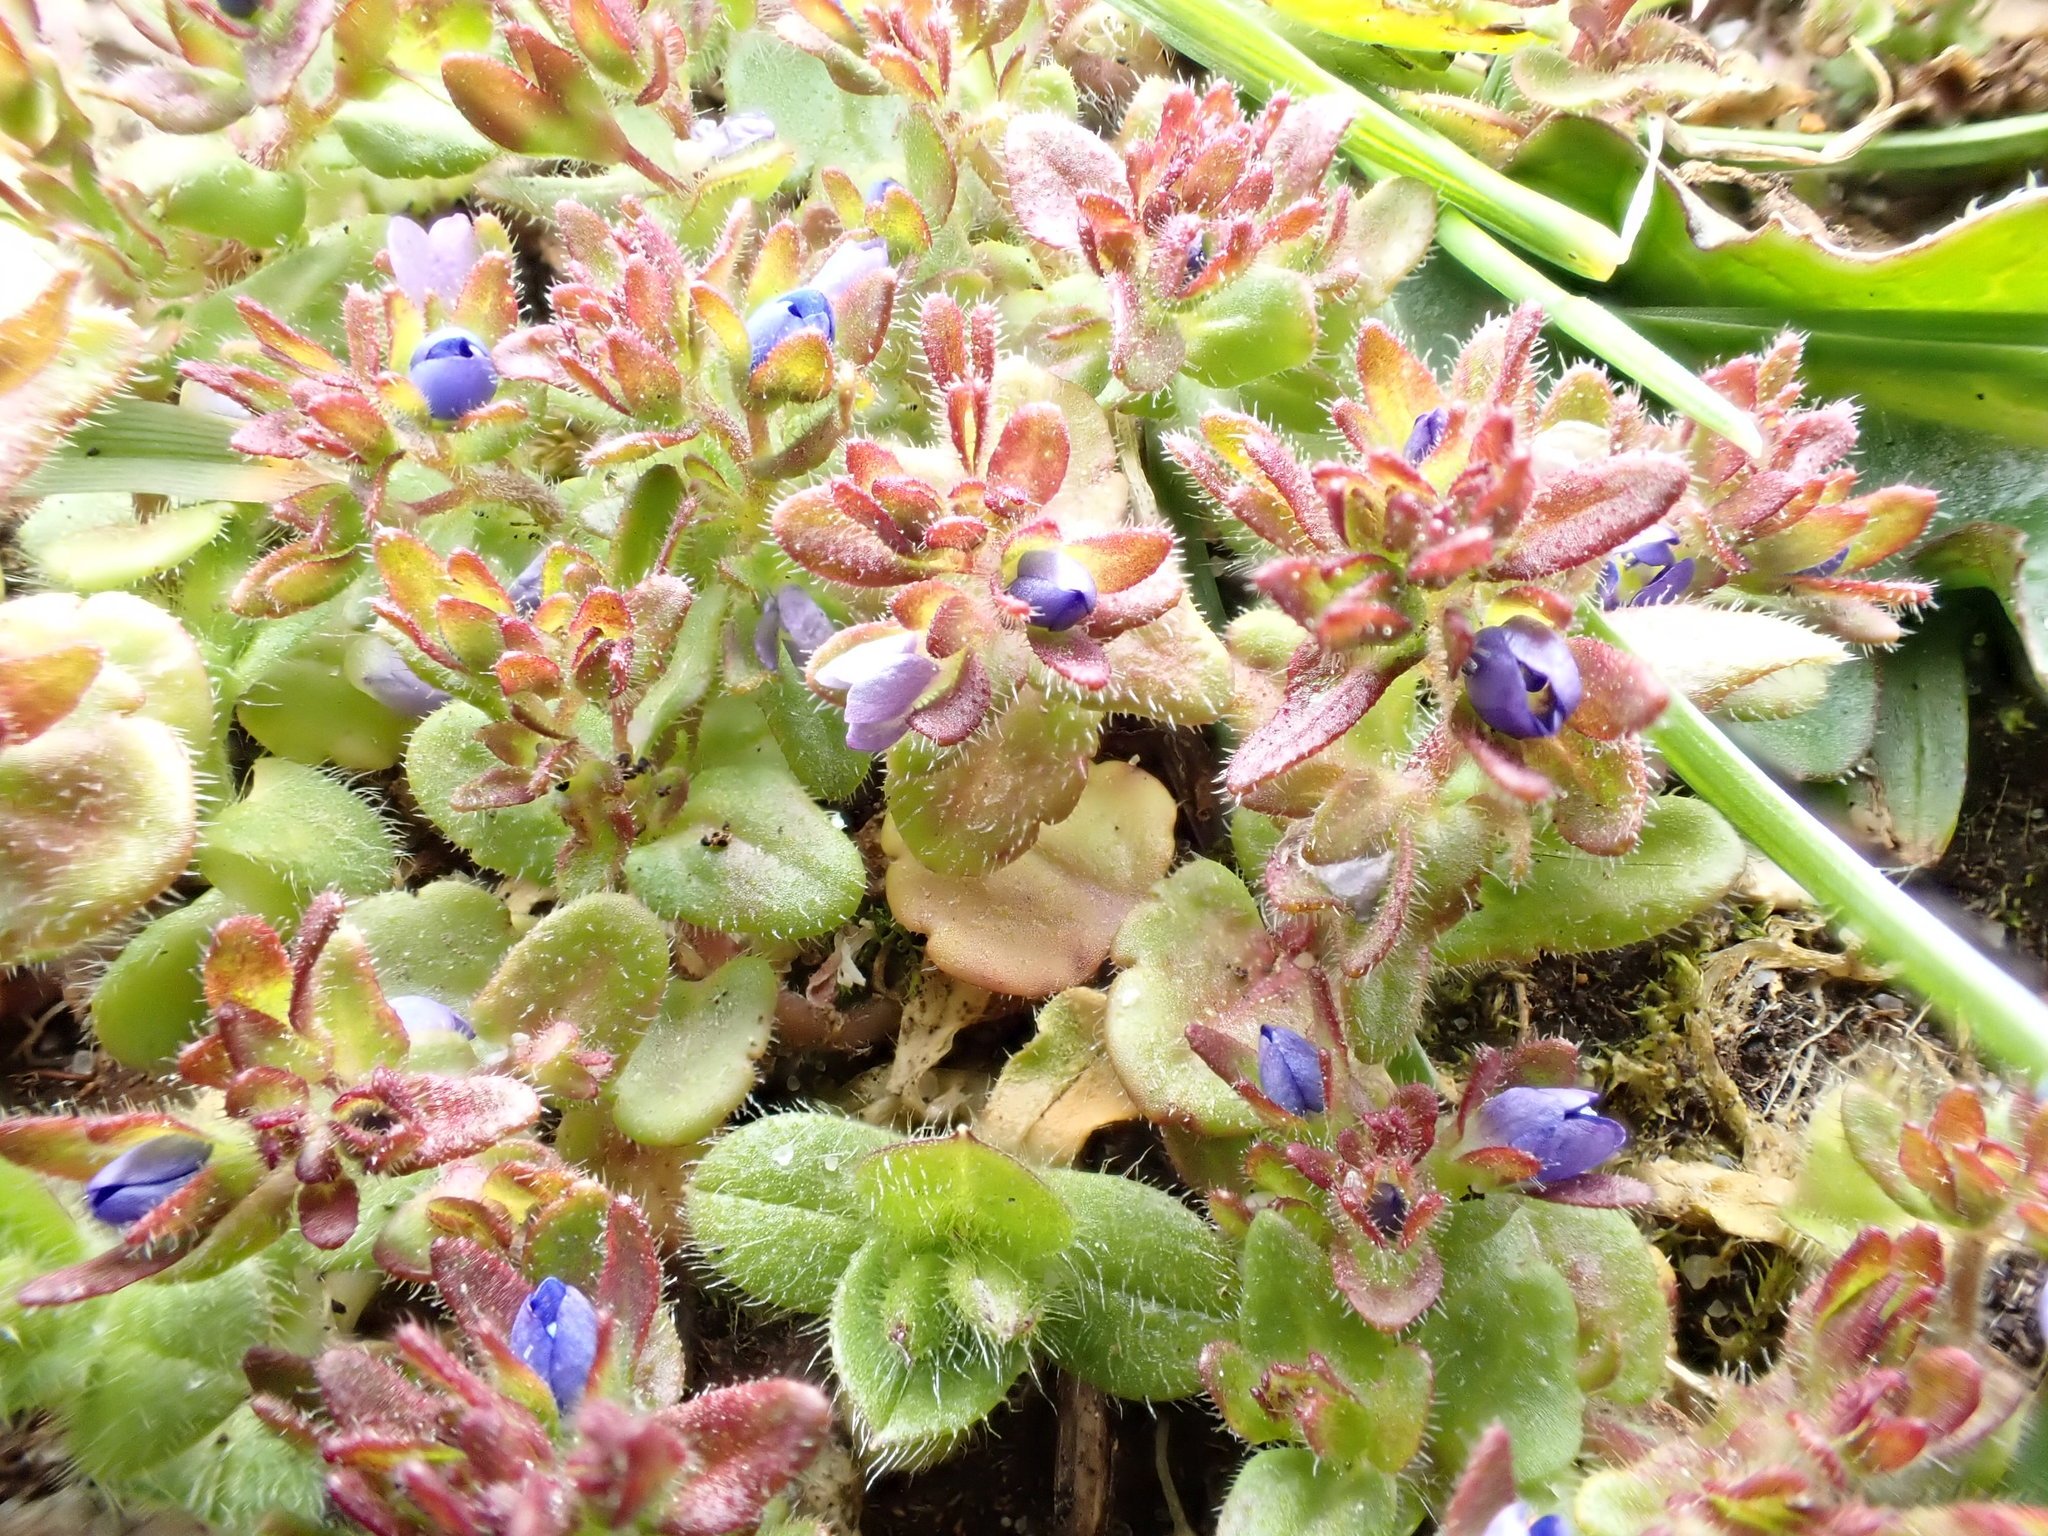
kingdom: Plantae
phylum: Tracheophyta
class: Magnoliopsida
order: Lamiales
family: Plantaginaceae
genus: Veronica
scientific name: Veronica arvensis
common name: Corn speedwell
